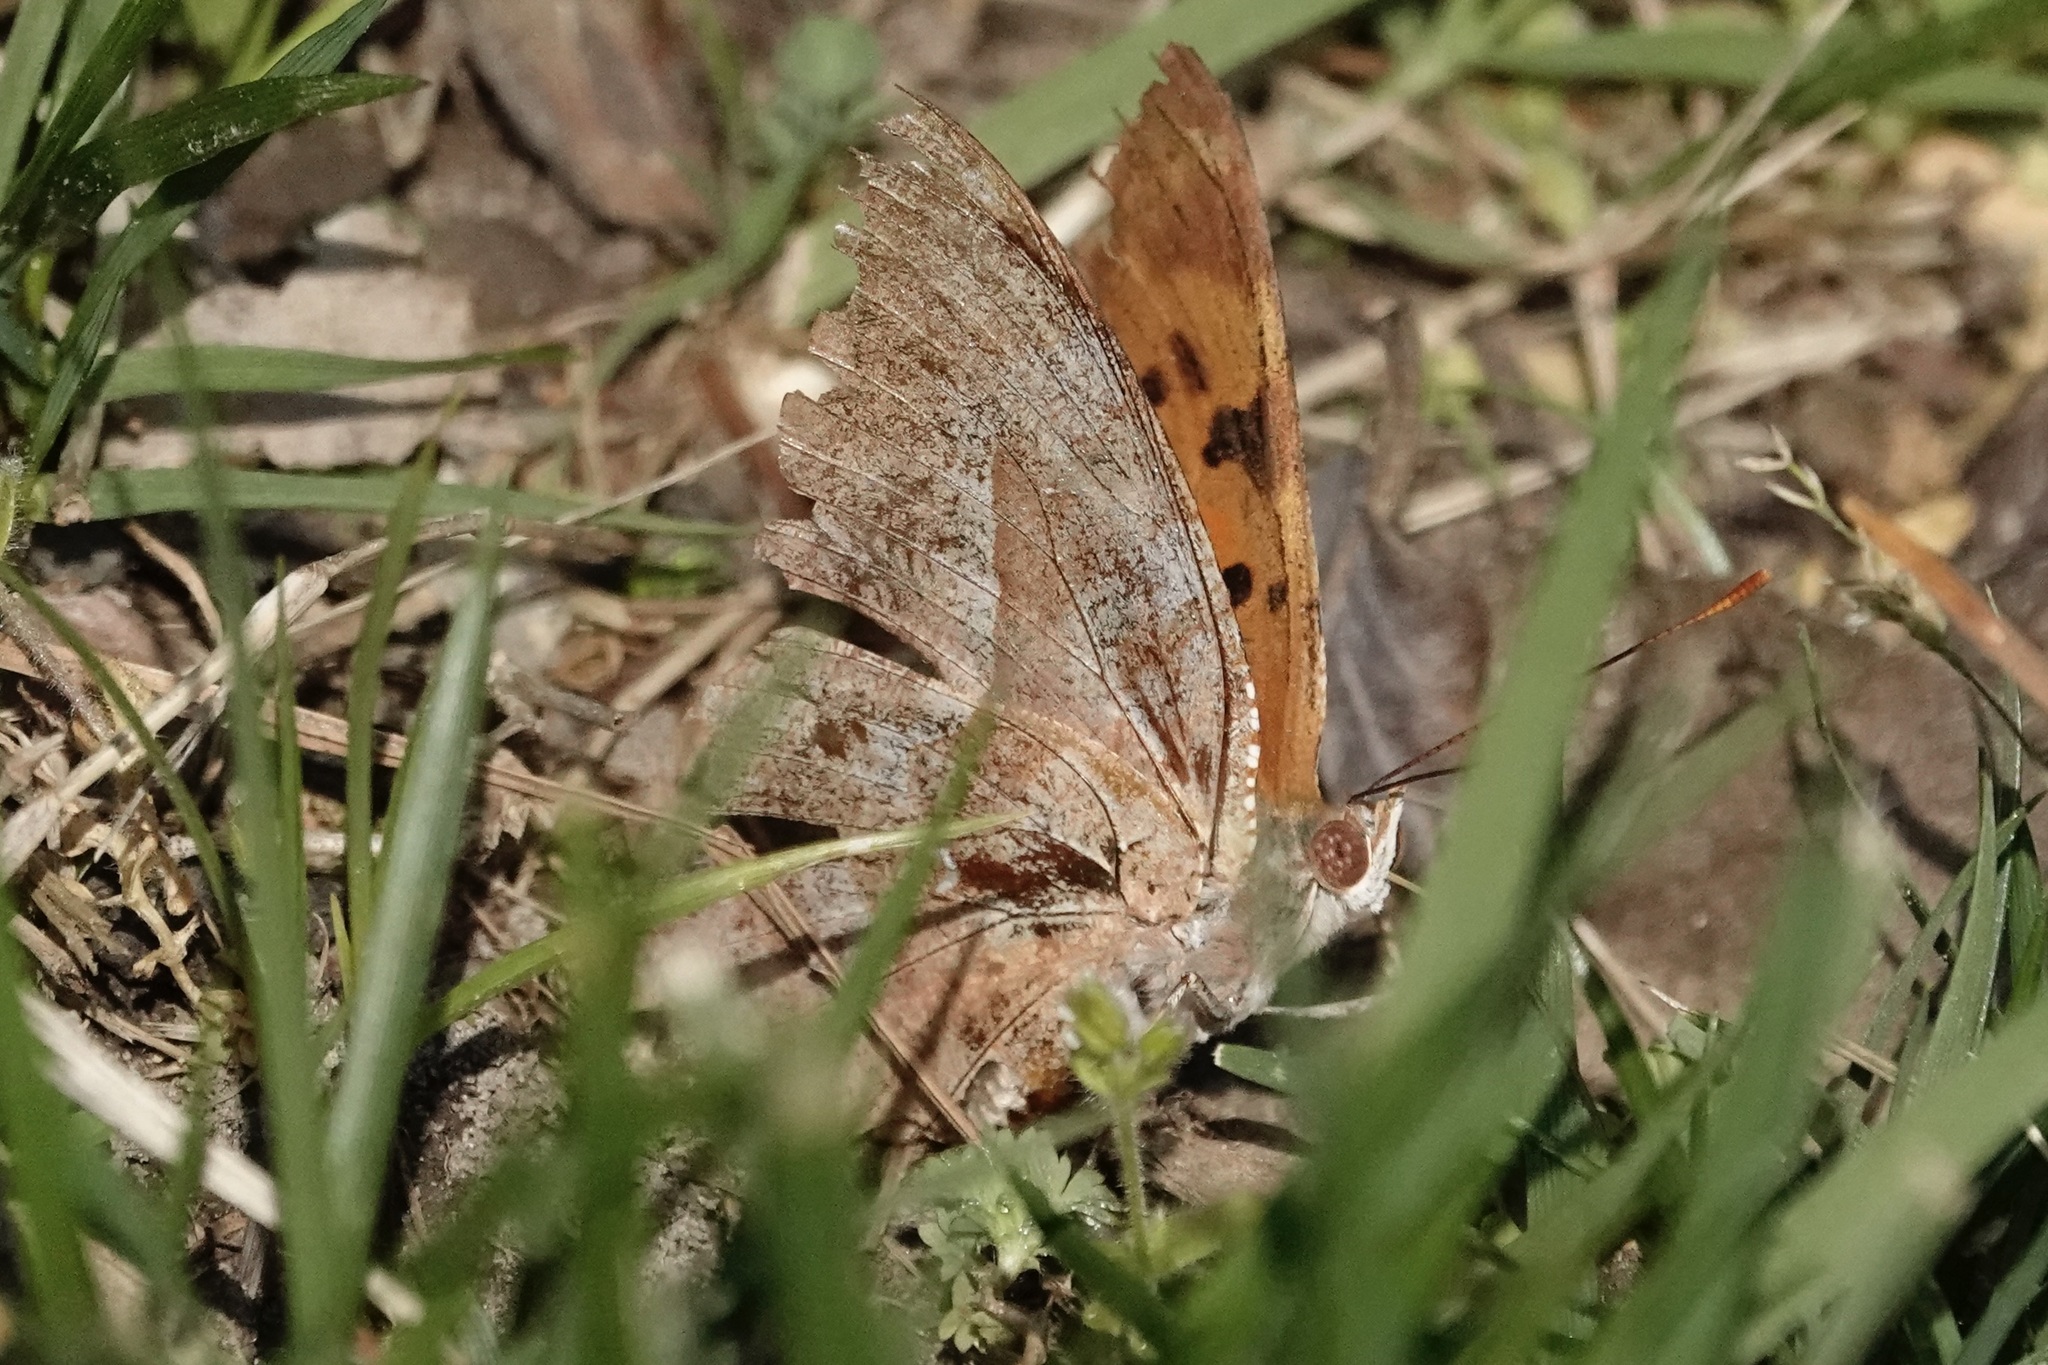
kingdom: Animalia
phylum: Arthropoda
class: Insecta
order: Lepidoptera
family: Nymphalidae
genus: Polygonia
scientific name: Polygonia interrogationis
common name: Question mark
